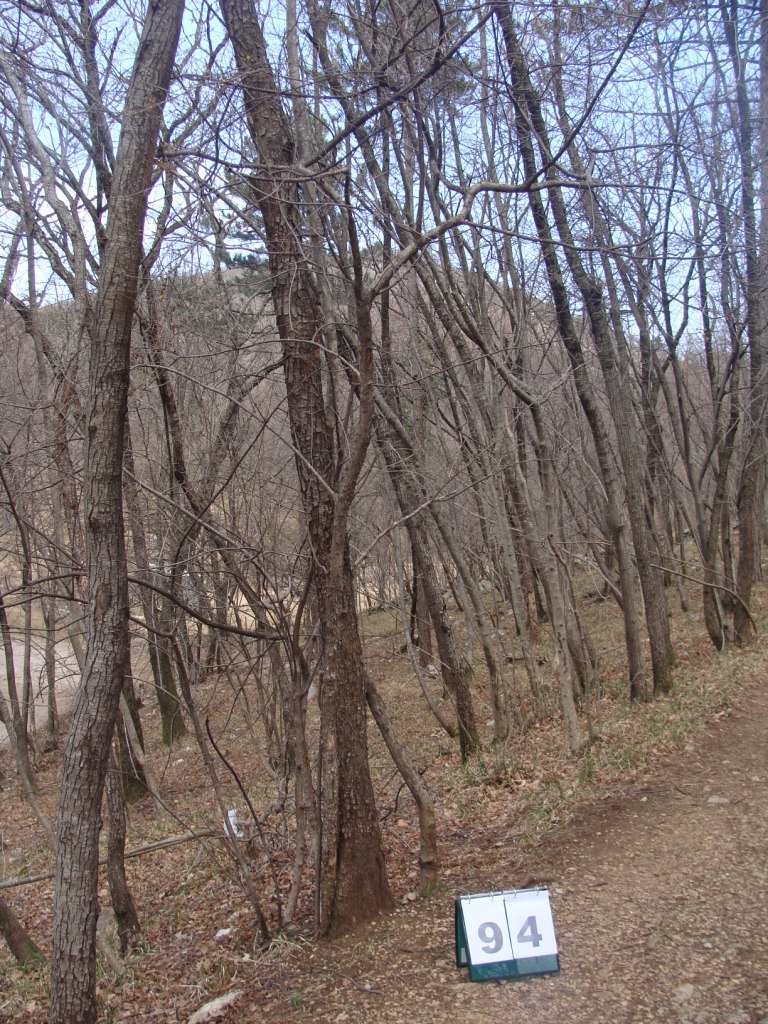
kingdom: Plantae
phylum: Tracheophyta
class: Magnoliopsida
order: Cornales
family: Cornaceae
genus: Cornus
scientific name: Cornus mas
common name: Cornelian-cherry
